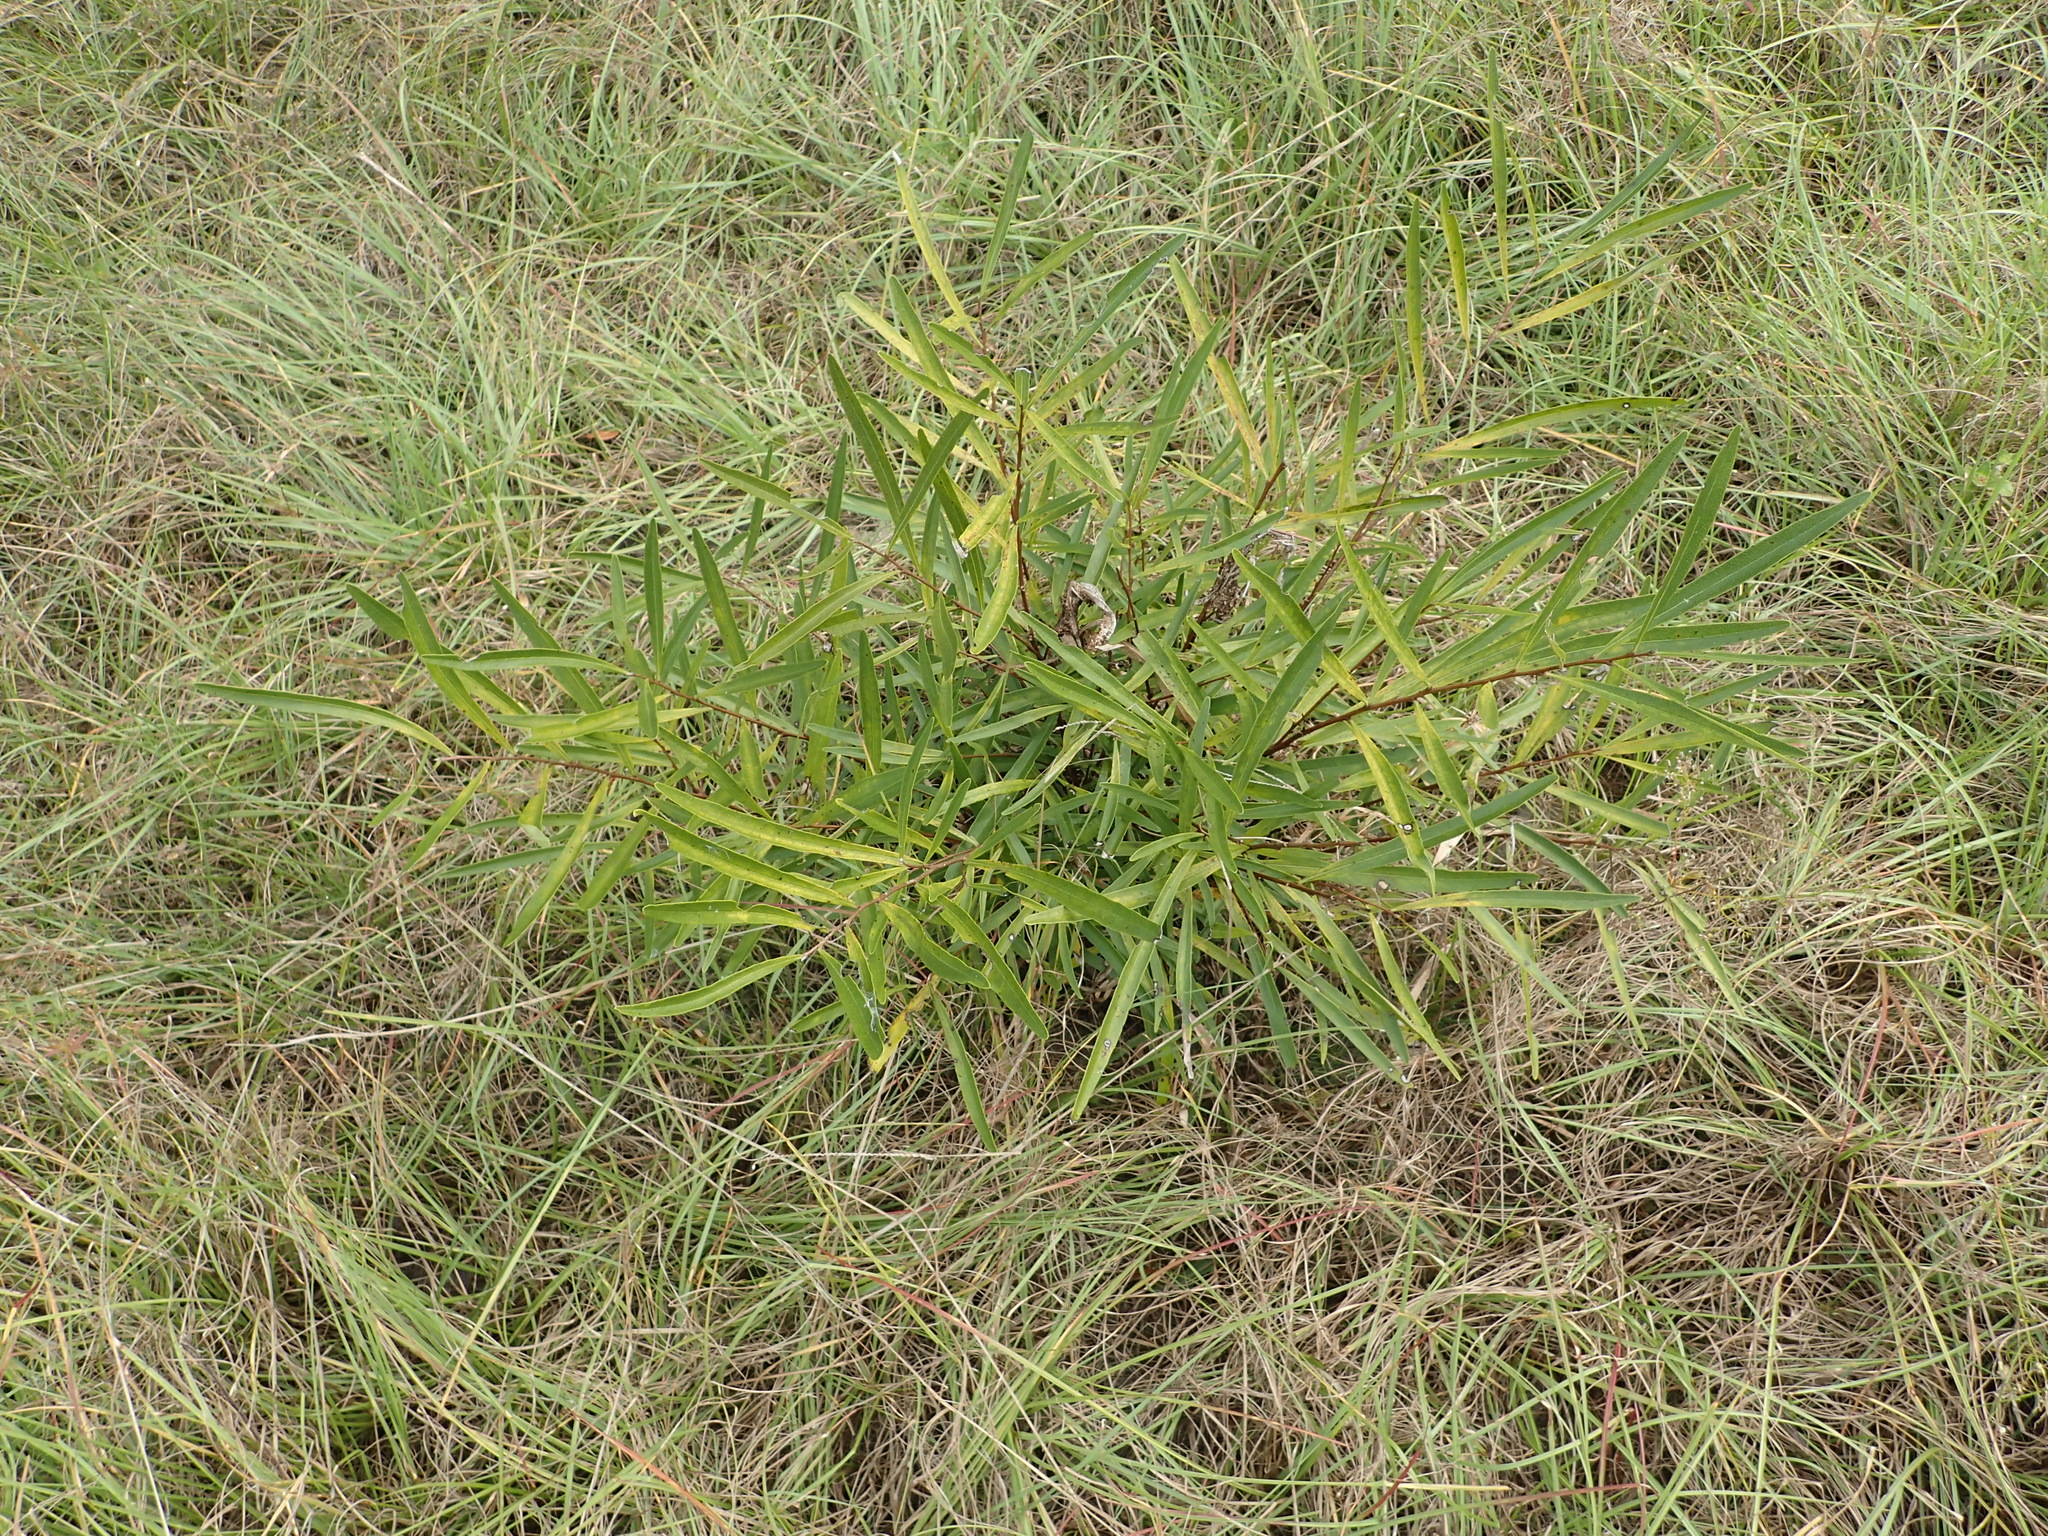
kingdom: Plantae
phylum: Tracheophyta
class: Magnoliopsida
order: Magnoliales
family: Annonaceae
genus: Asimina
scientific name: Asimina longifolia
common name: Polecatbush
